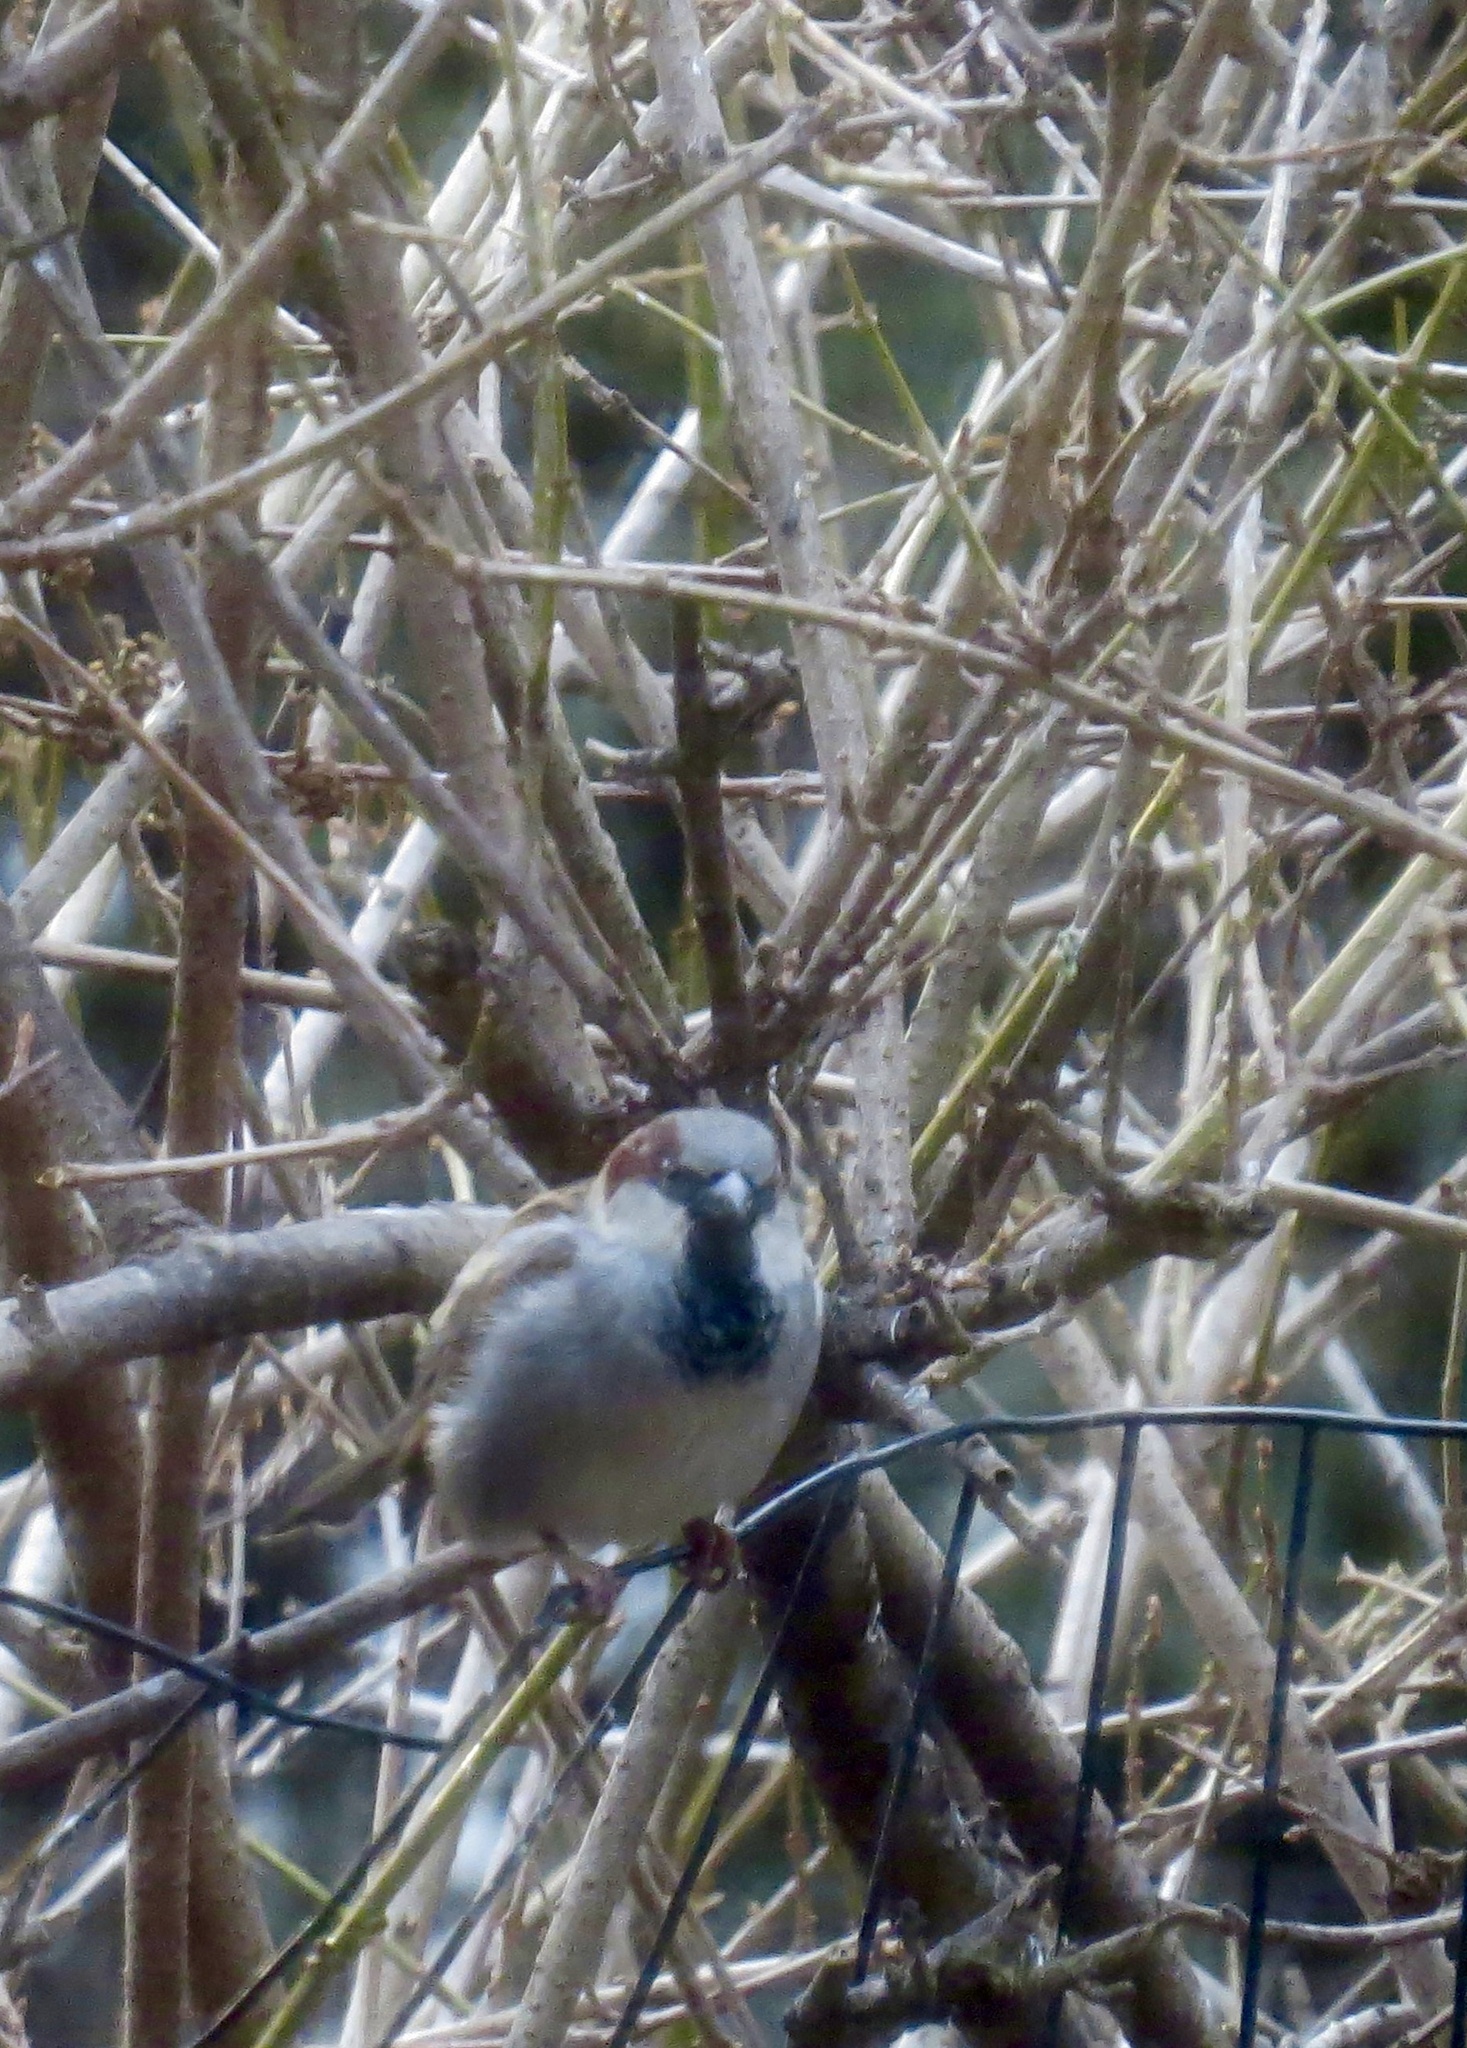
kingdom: Animalia
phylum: Chordata
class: Aves
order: Passeriformes
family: Passeridae
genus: Passer
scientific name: Passer domesticus
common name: House sparrow
